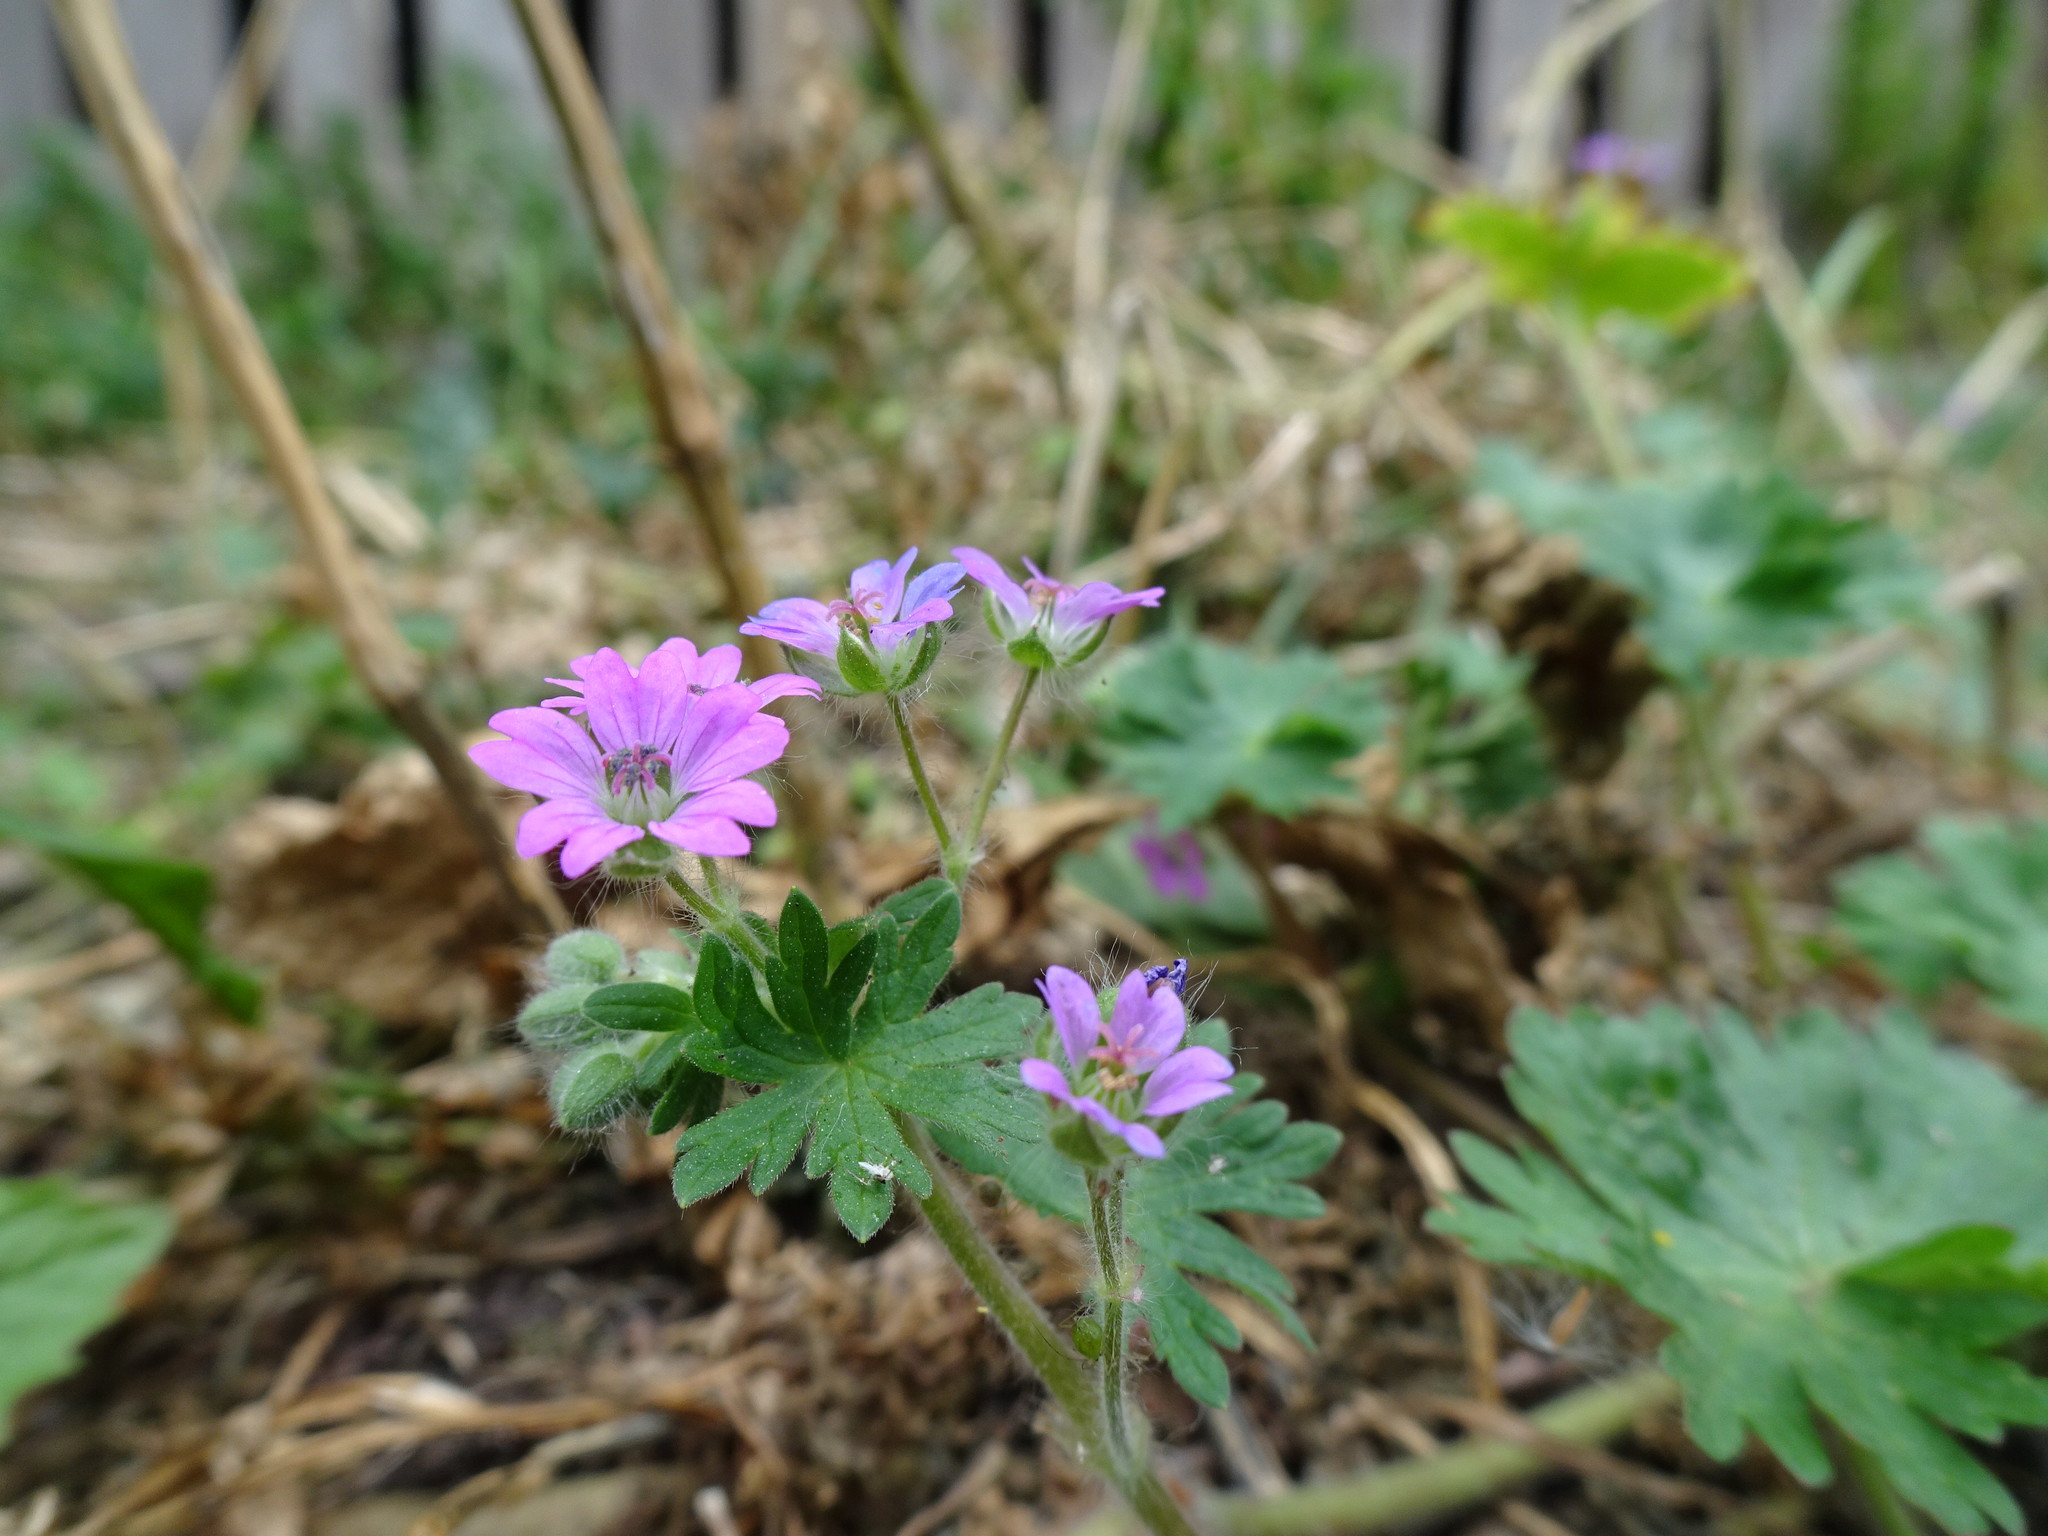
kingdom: Plantae
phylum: Tracheophyta
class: Magnoliopsida
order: Geraniales
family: Geraniaceae
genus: Geranium
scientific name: Geranium molle
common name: Dove's-foot crane's-bill
